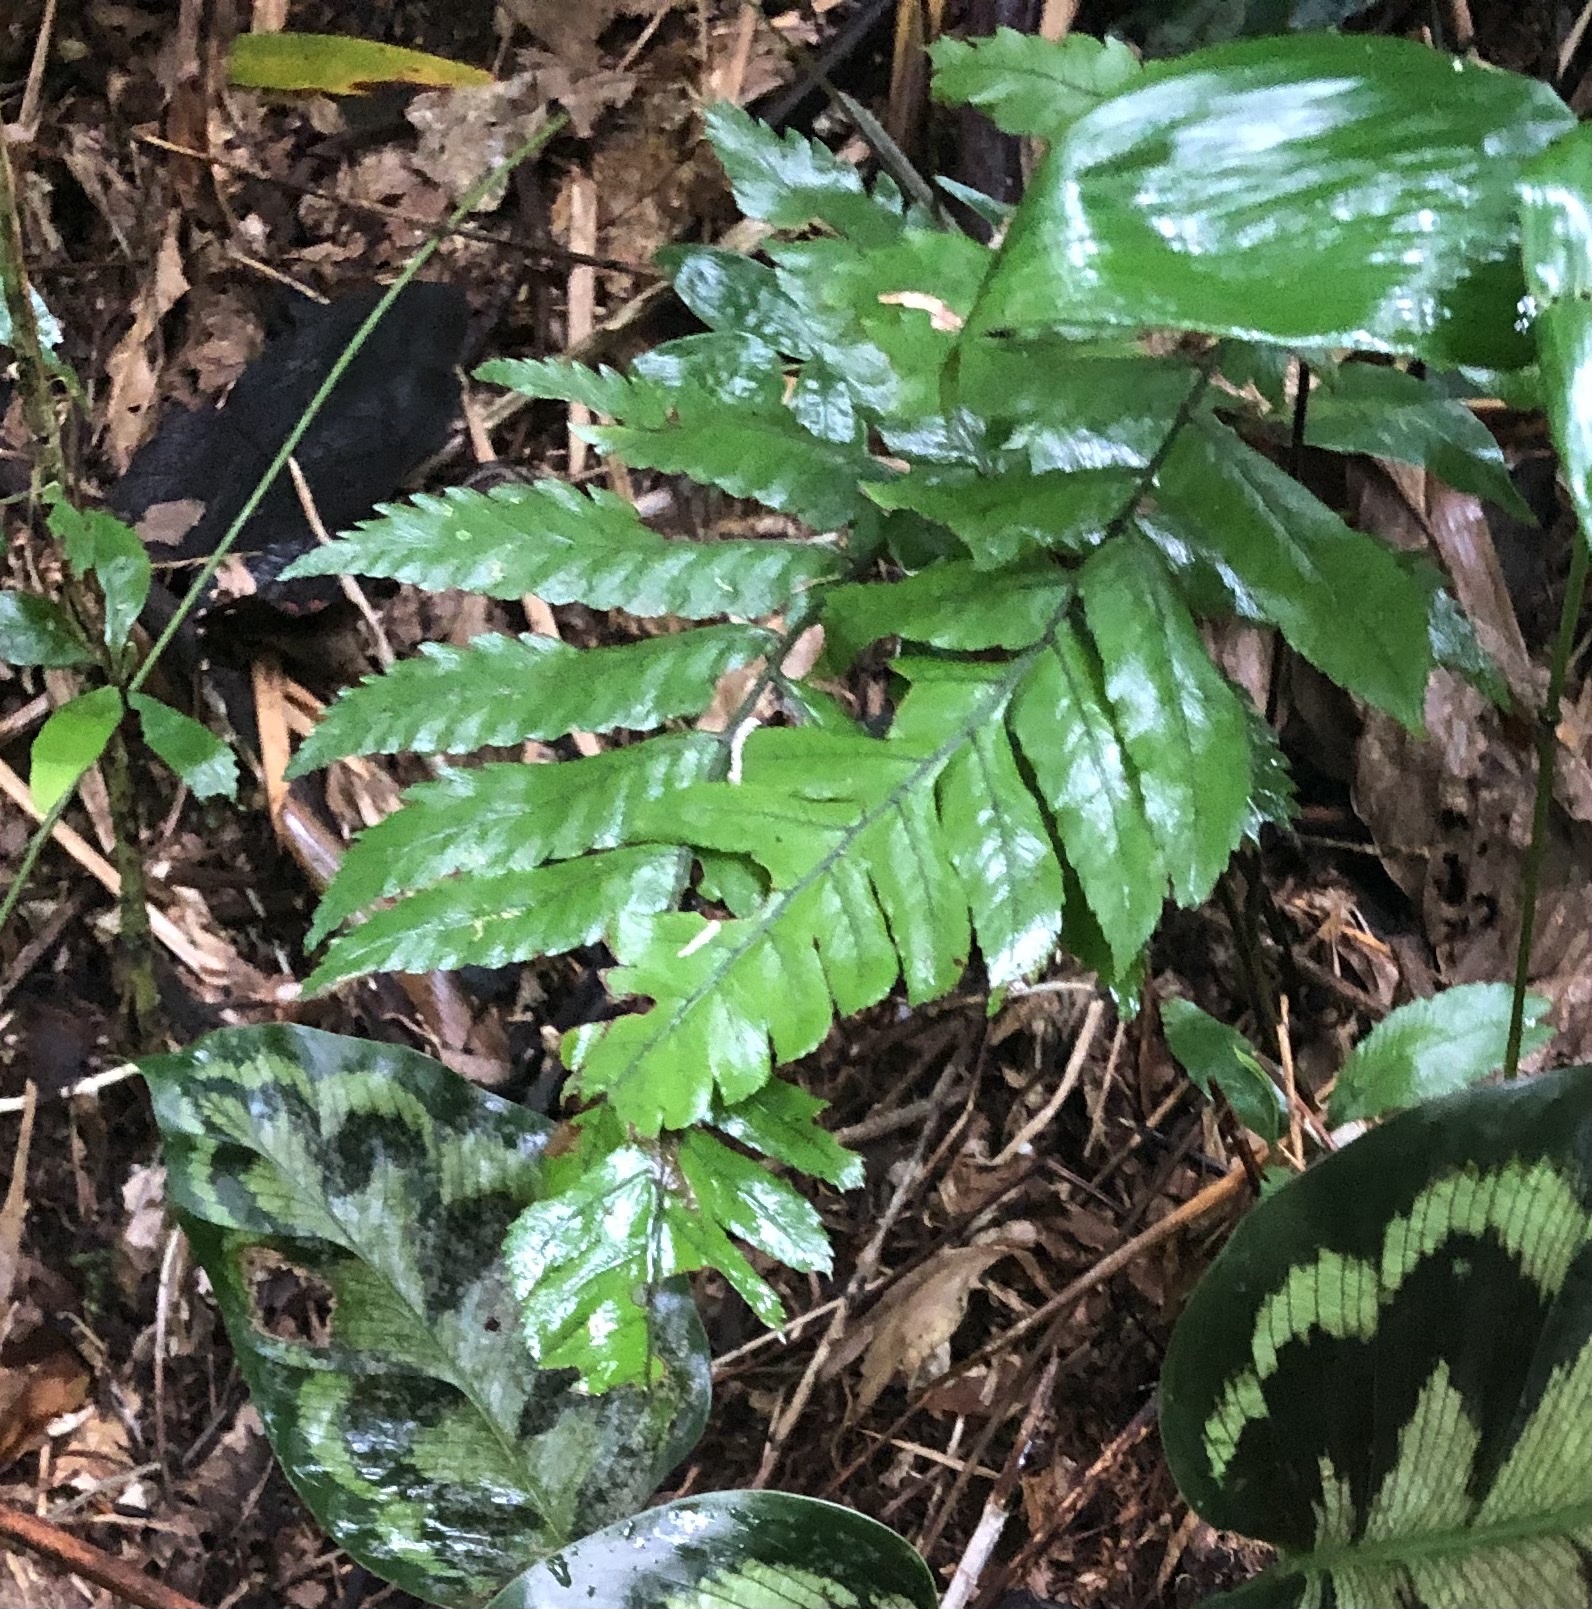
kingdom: Plantae
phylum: Tracheophyta
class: Polypodiopsida
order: Polypodiales
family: Dryopteridaceae
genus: Polybotrya
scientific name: Polybotrya caudata
